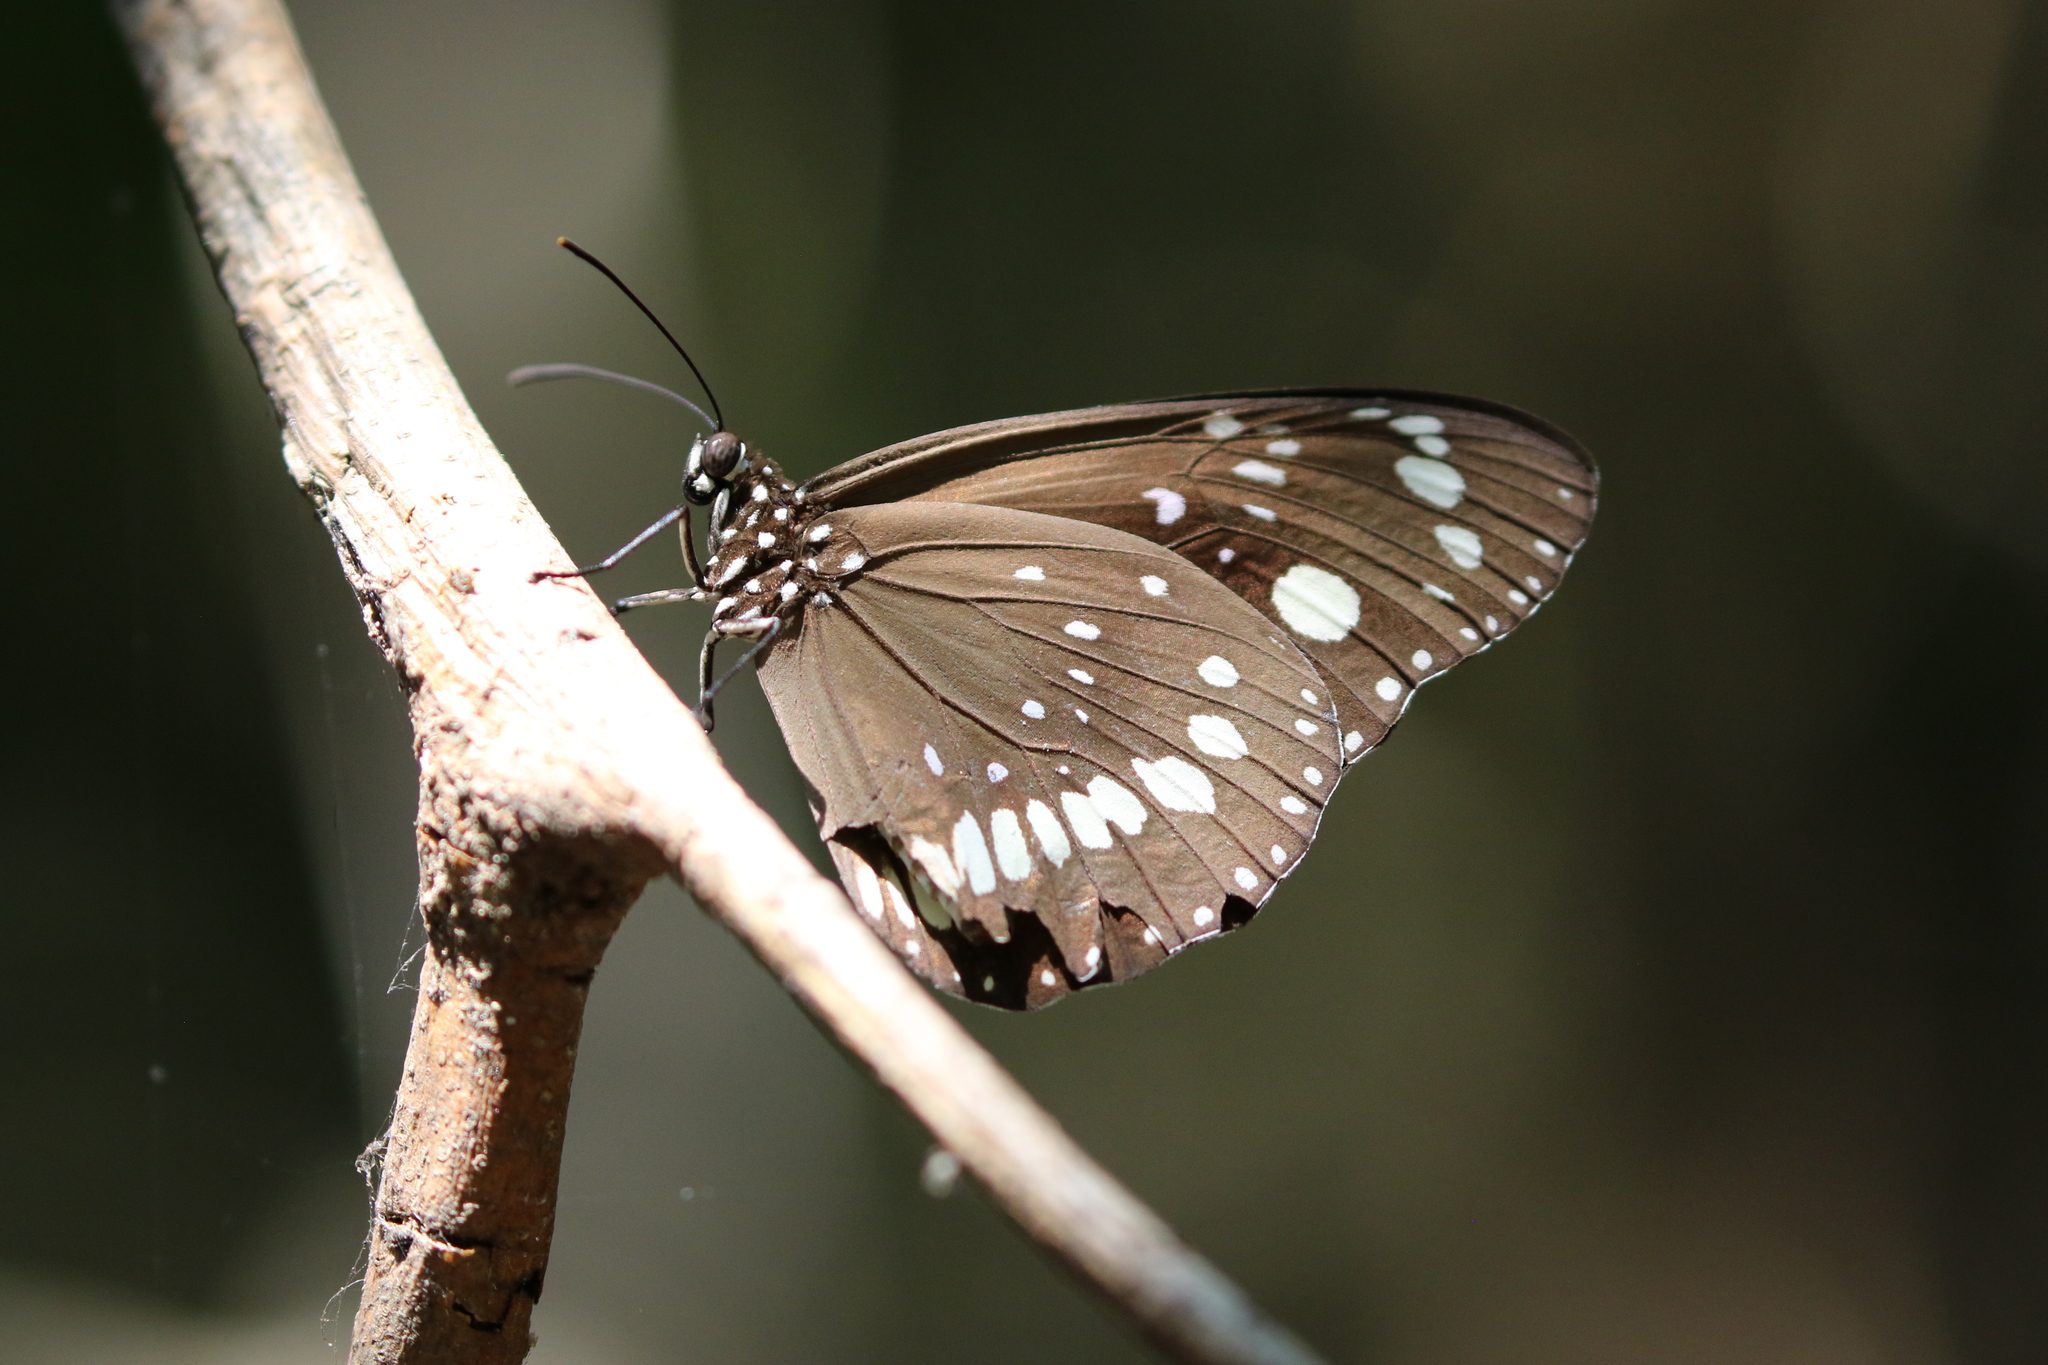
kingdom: Animalia
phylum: Arthropoda
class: Insecta
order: Lepidoptera
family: Nymphalidae
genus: Euploea
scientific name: Euploea core
